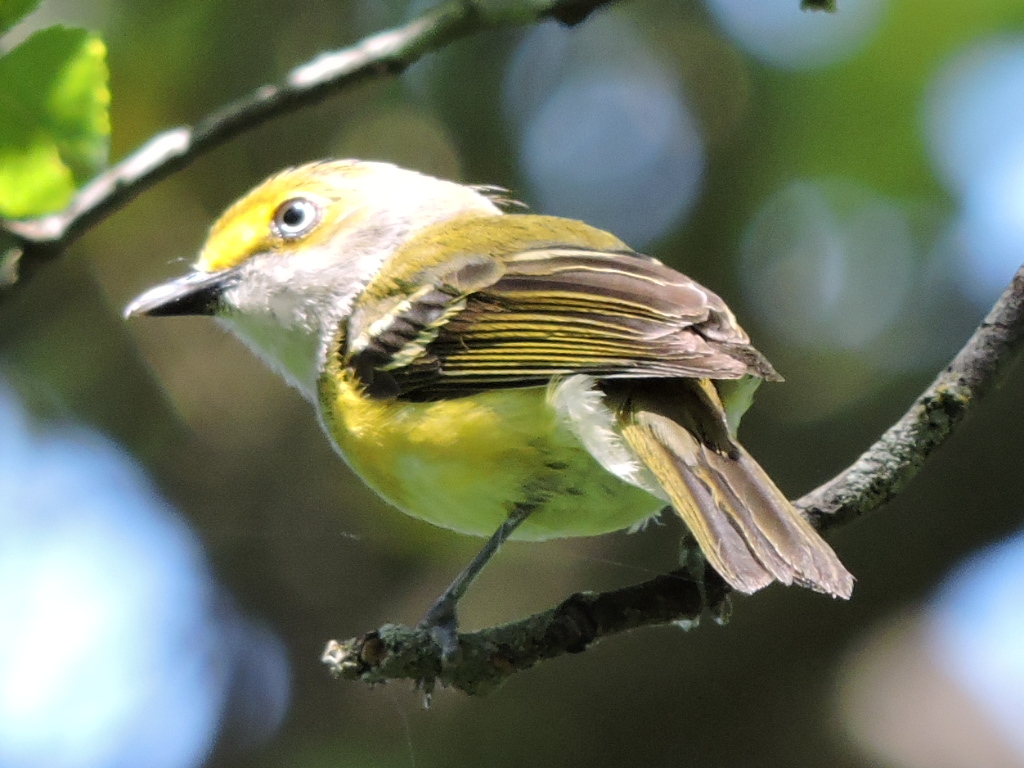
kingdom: Animalia
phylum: Chordata
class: Aves
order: Passeriformes
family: Vireonidae
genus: Vireo
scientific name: Vireo griseus
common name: White-eyed vireo
